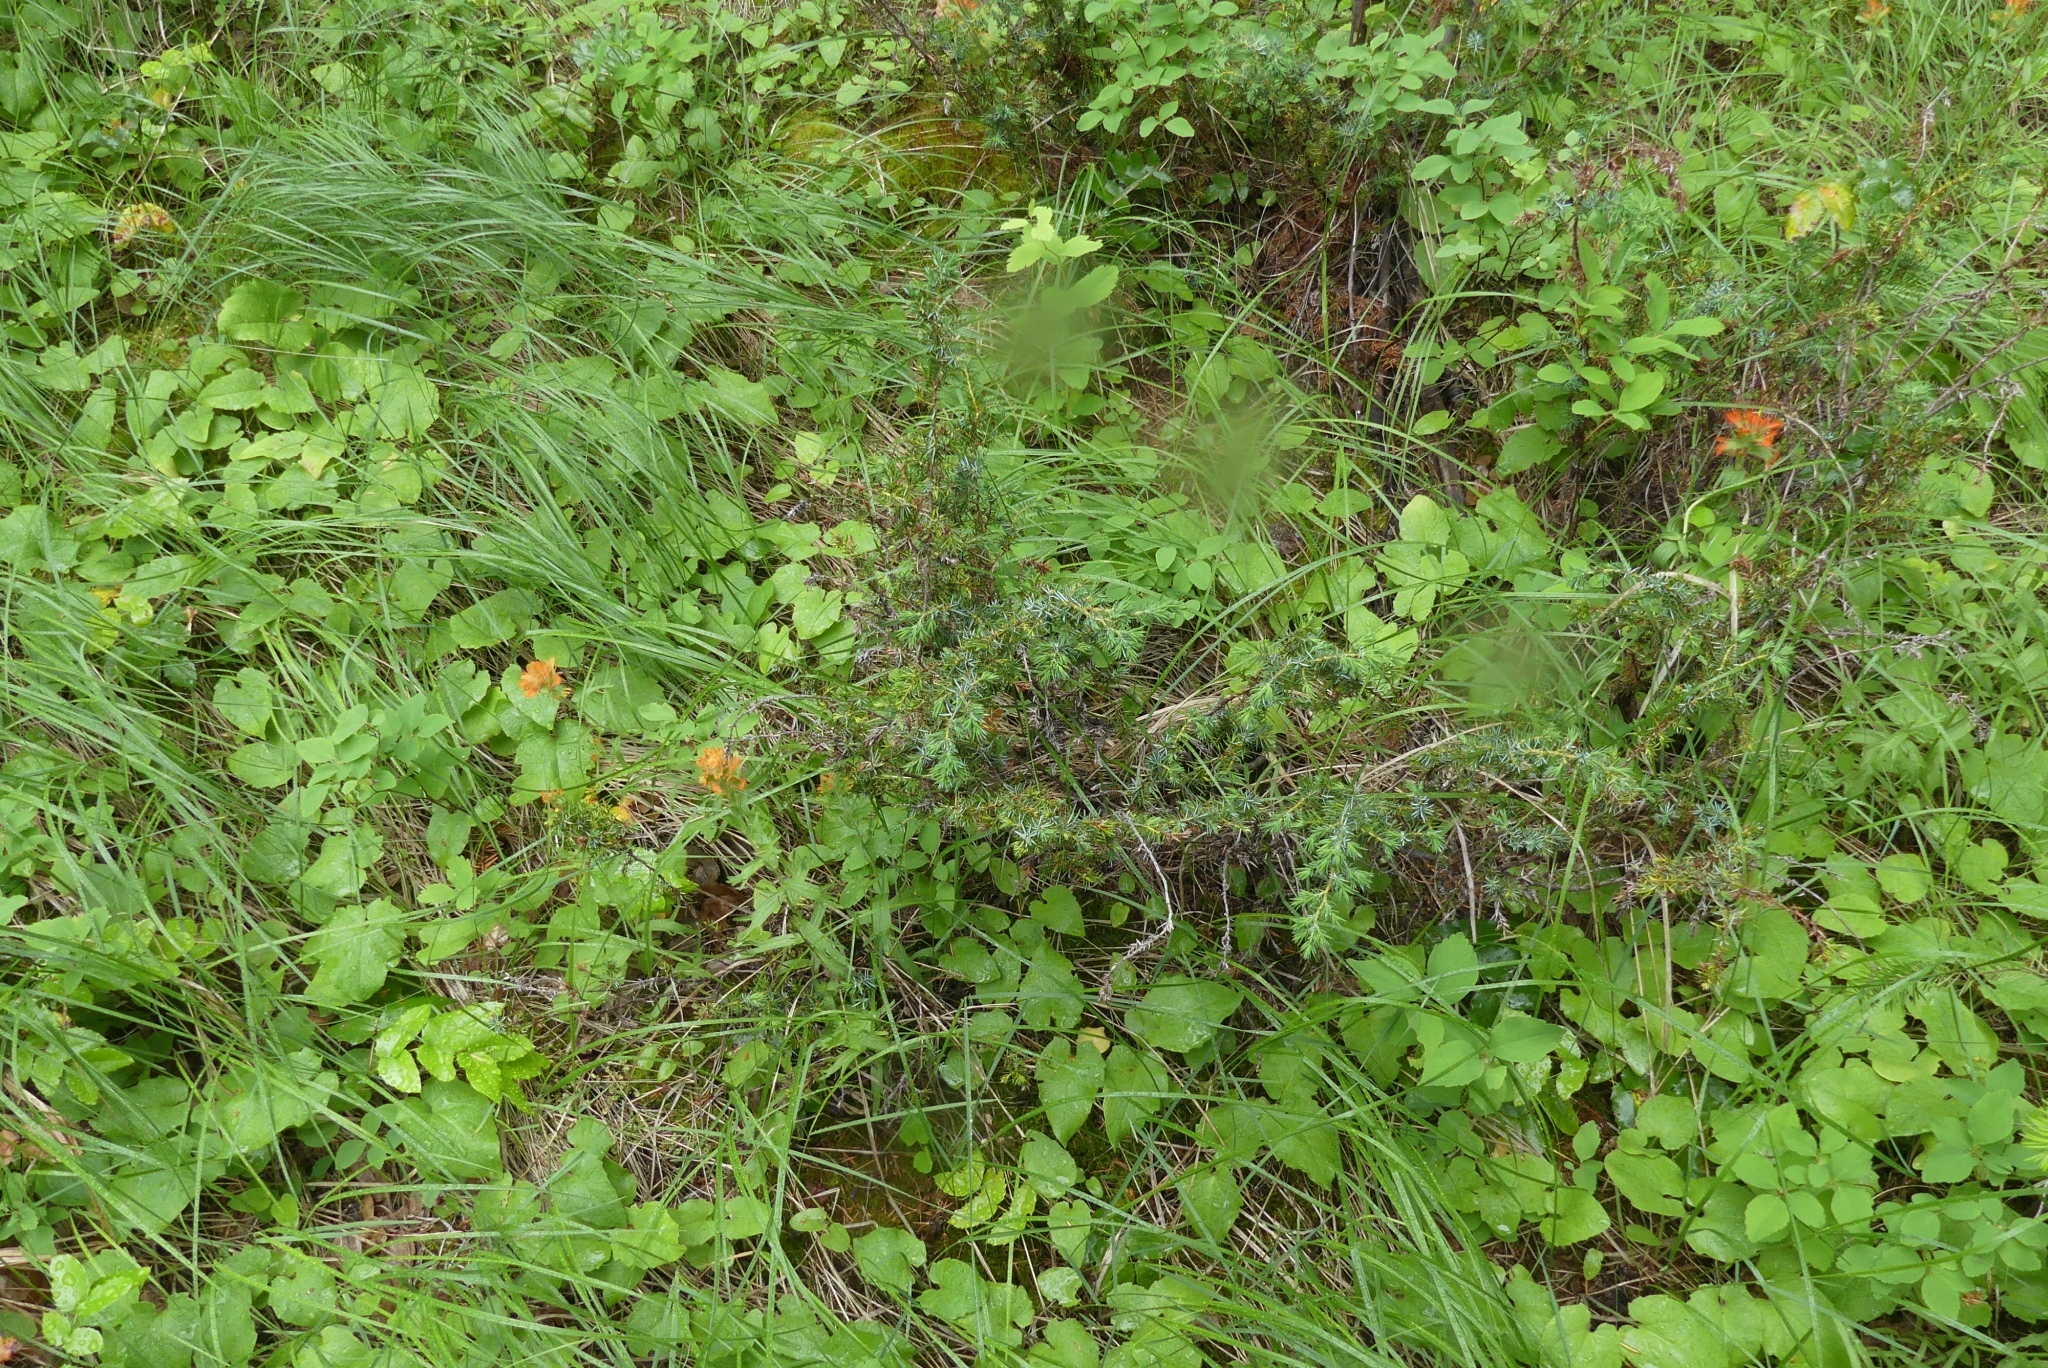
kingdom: Plantae
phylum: Tracheophyta
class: Pinopsida
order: Pinales
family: Cupressaceae
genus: Juniperus
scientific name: Juniperus communis
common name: Common juniper
